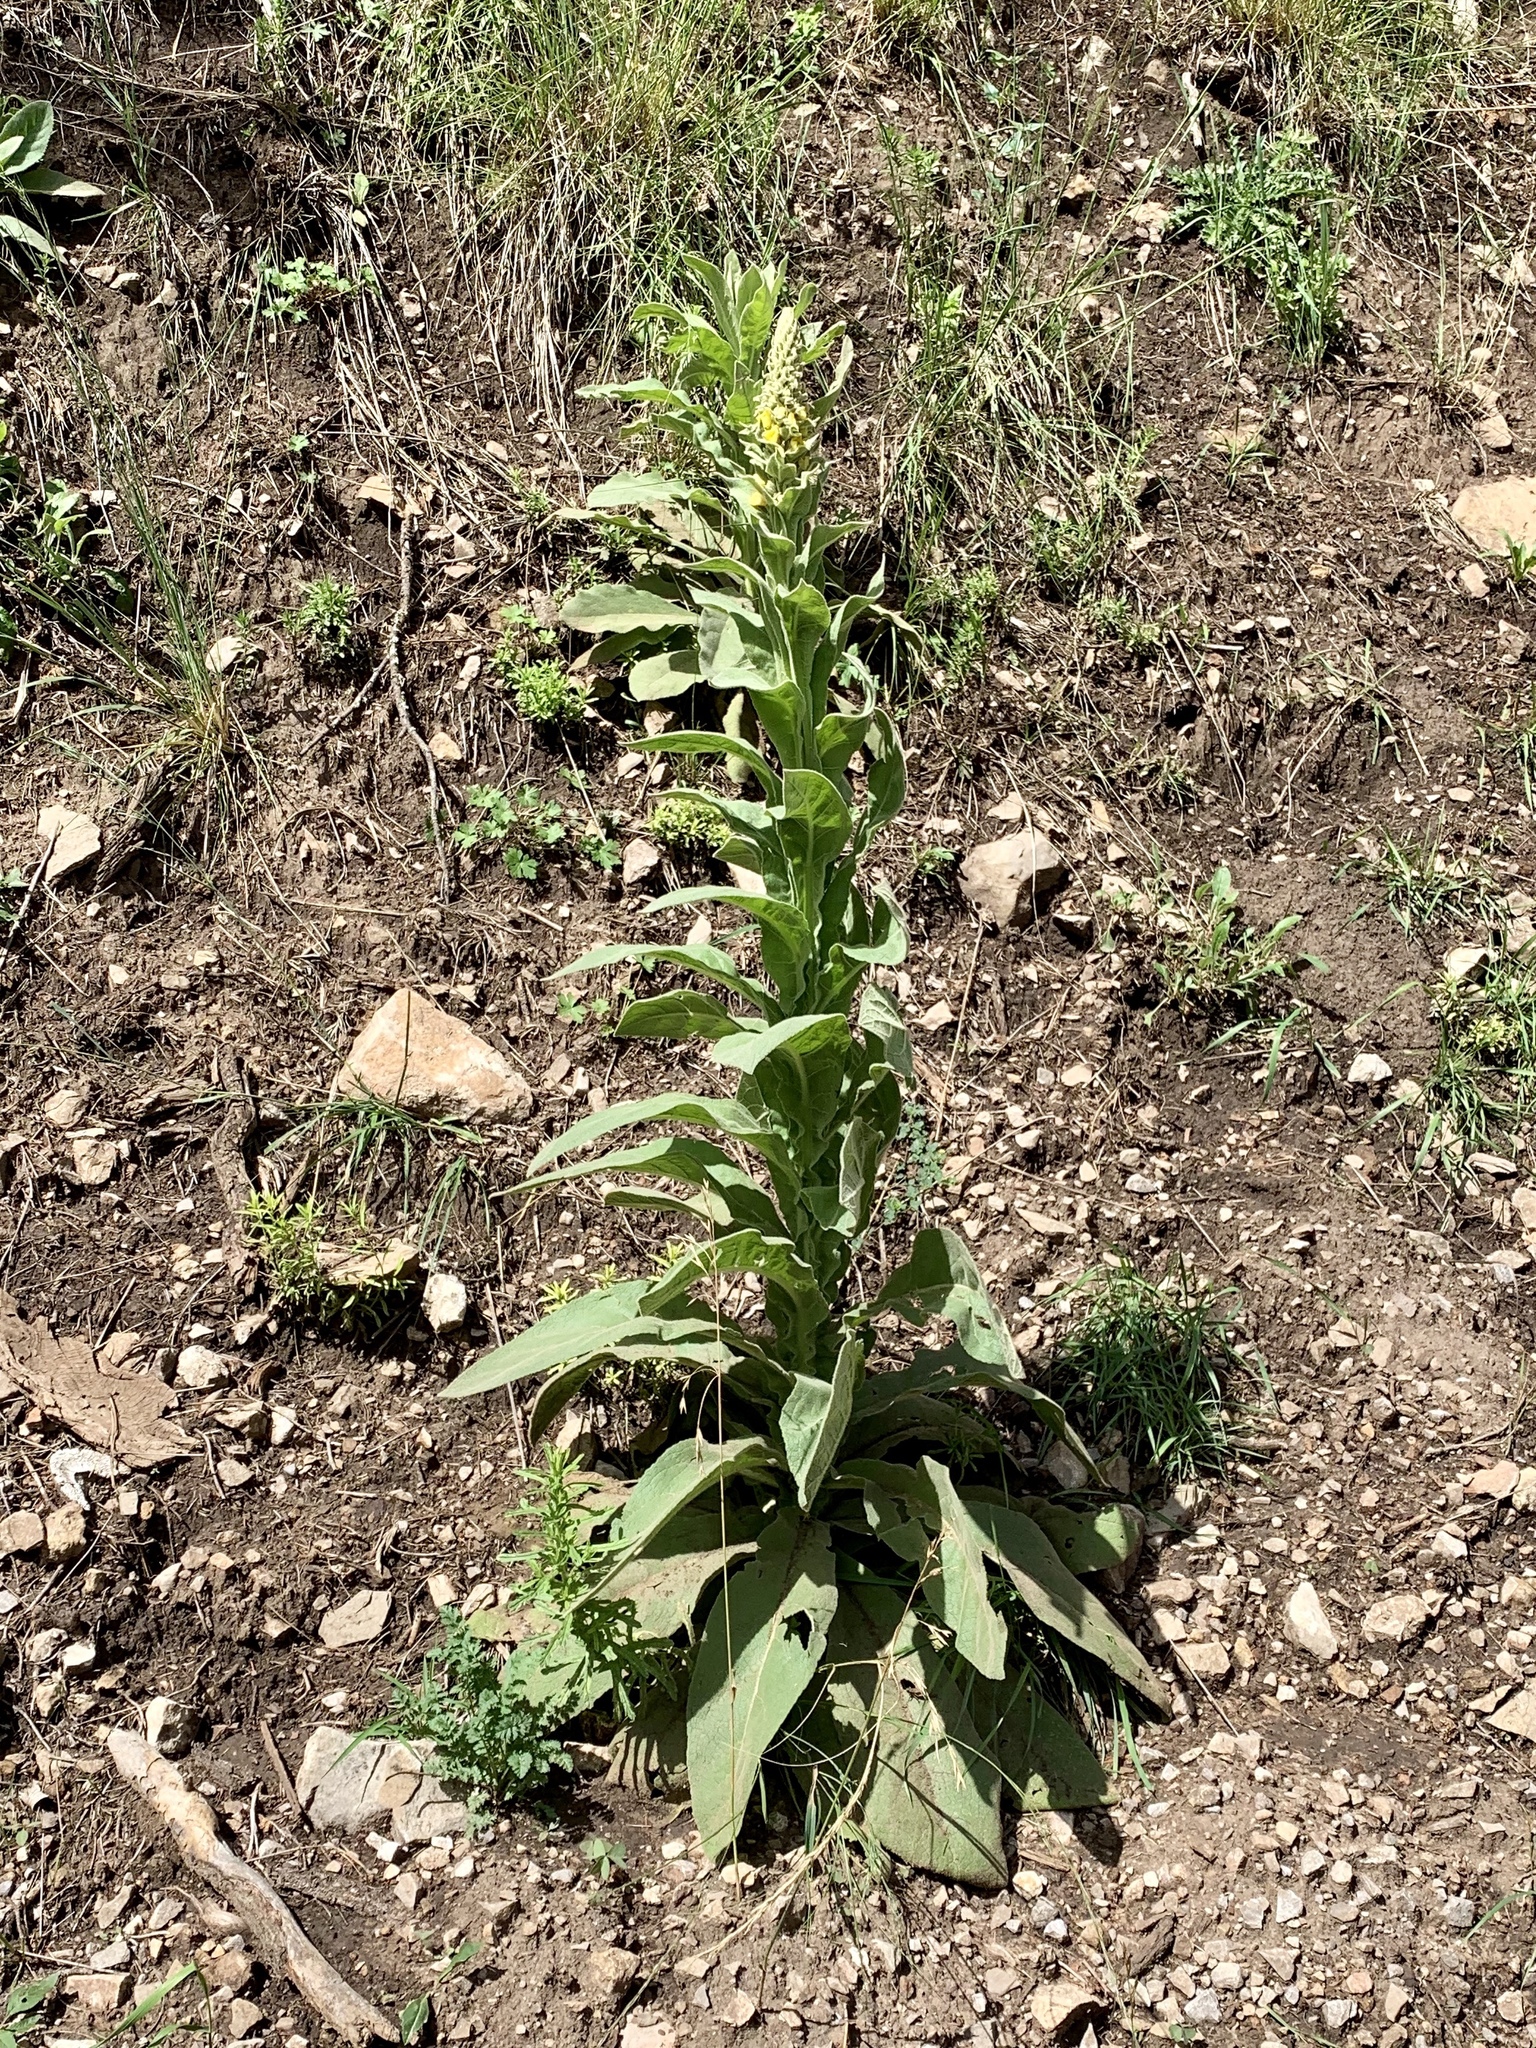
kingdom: Plantae
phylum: Tracheophyta
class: Magnoliopsida
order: Lamiales
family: Scrophulariaceae
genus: Verbascum
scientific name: Verbascum thapsus
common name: Common mullein
